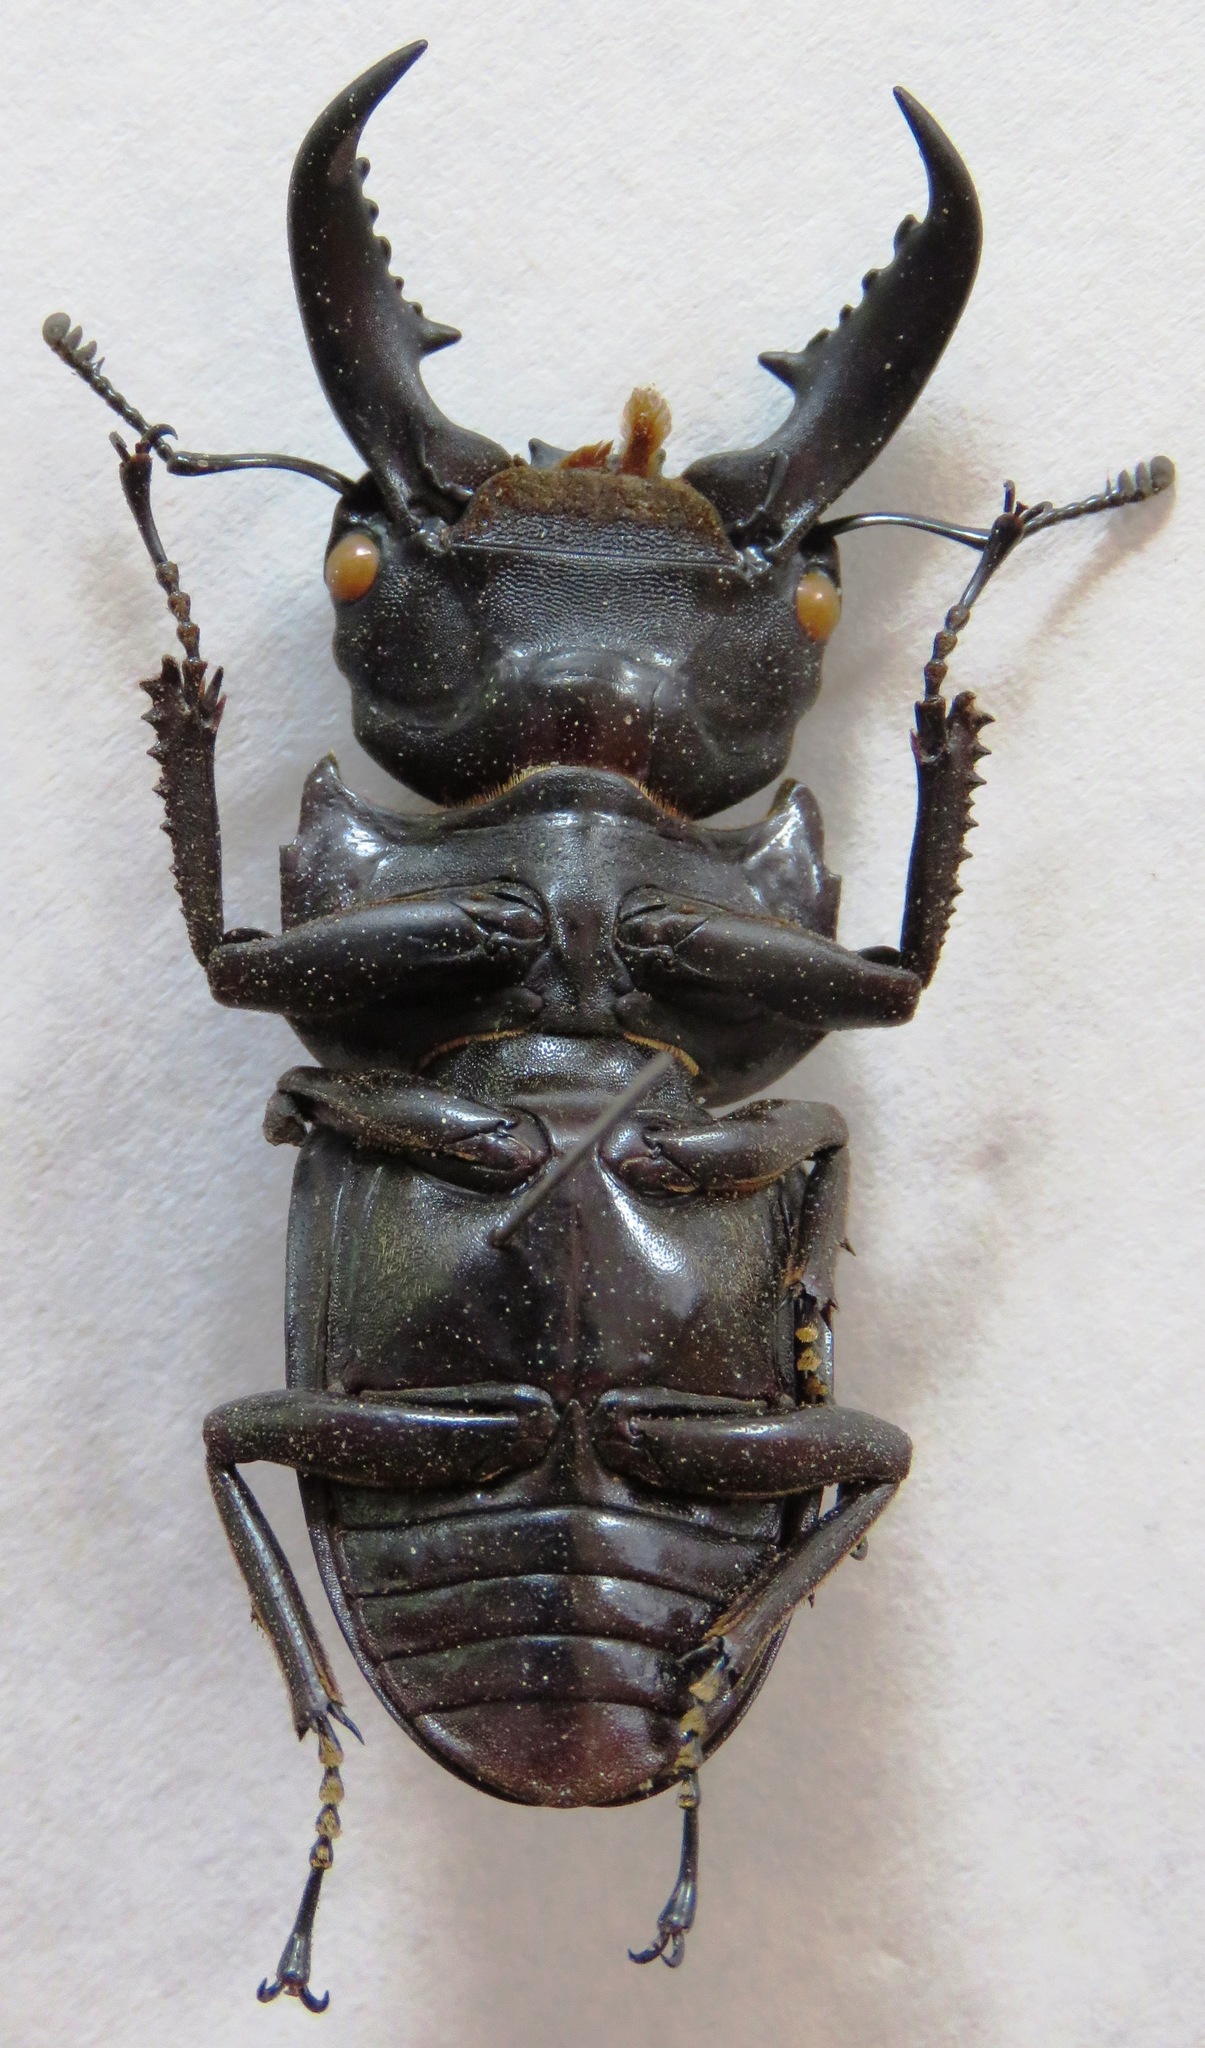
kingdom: Animalia
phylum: Arthropoda
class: Insecta
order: Coleoptera
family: Lucanidae
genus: Serrognathus
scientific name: Serrognathus titanus
